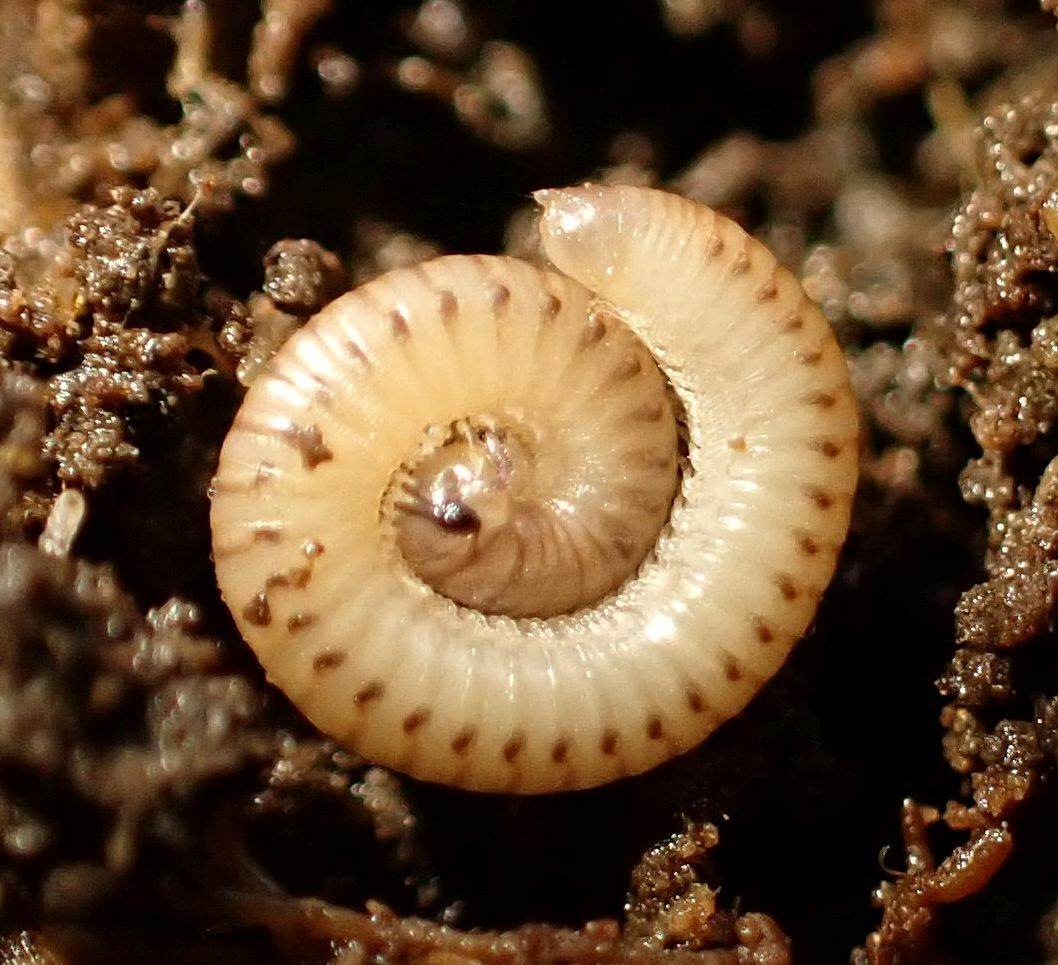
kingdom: Animalia
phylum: Arthropoda
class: Diplopoda
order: Julida
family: Julidae
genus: Cylindroiulus
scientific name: Cylindroiulus punctatus
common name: Blunt-tailed millipede
